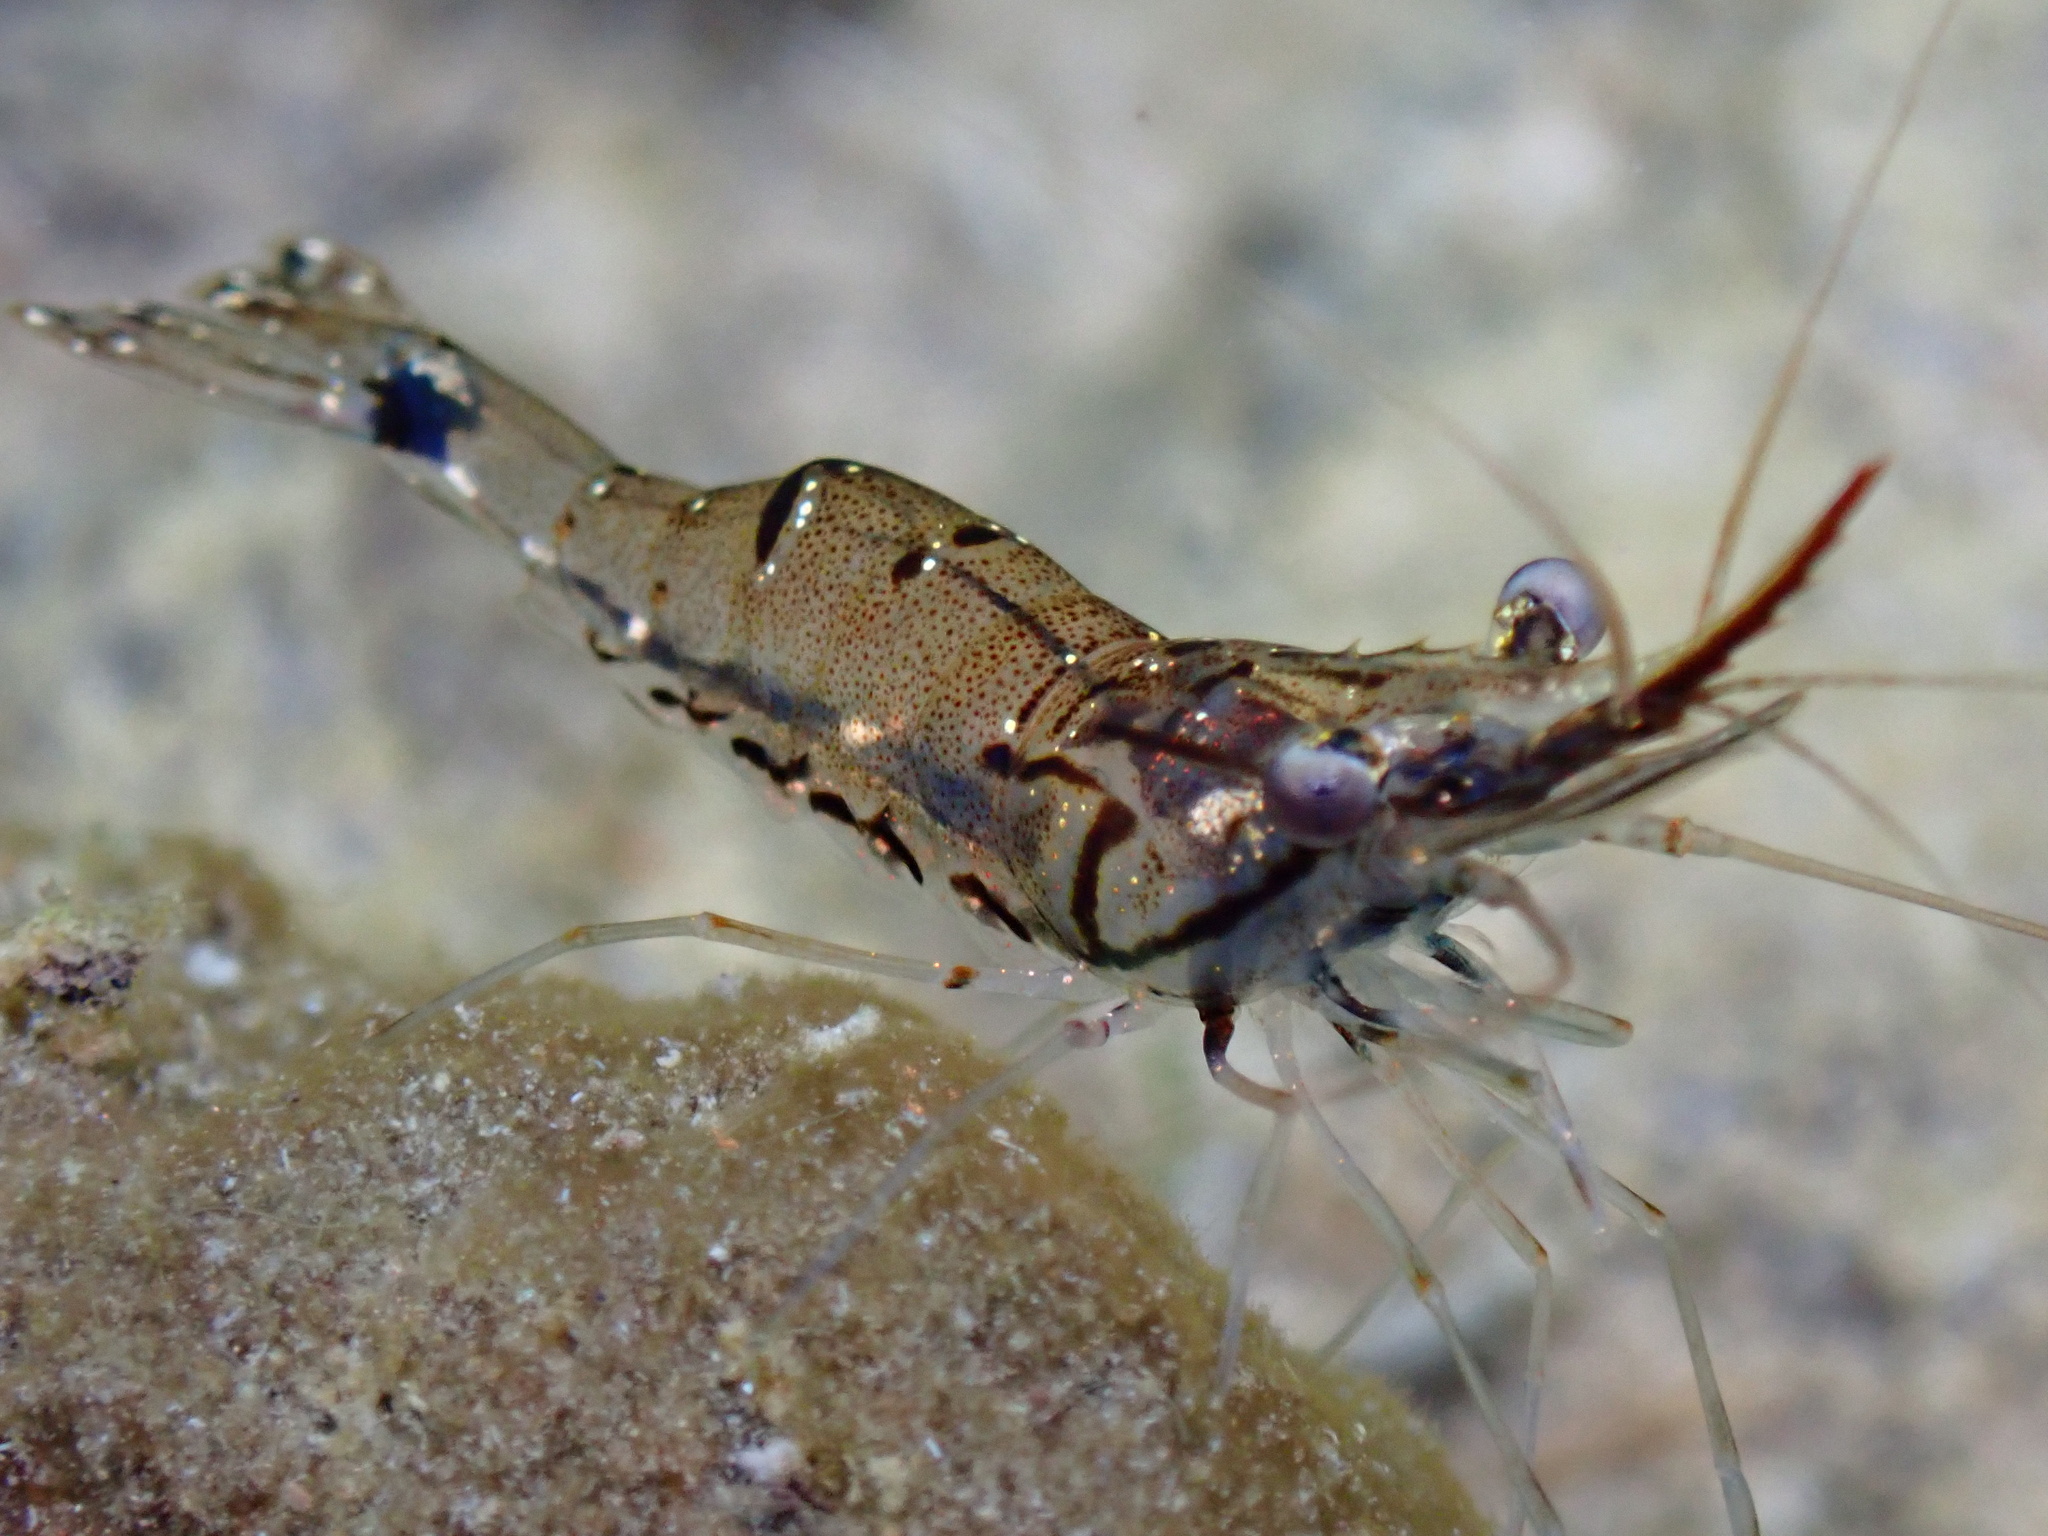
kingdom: Animalia
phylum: Arthropoda
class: Malacostraca
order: Decapoda
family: Palaemonidae
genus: Palaemon
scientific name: Palaemon debilis
